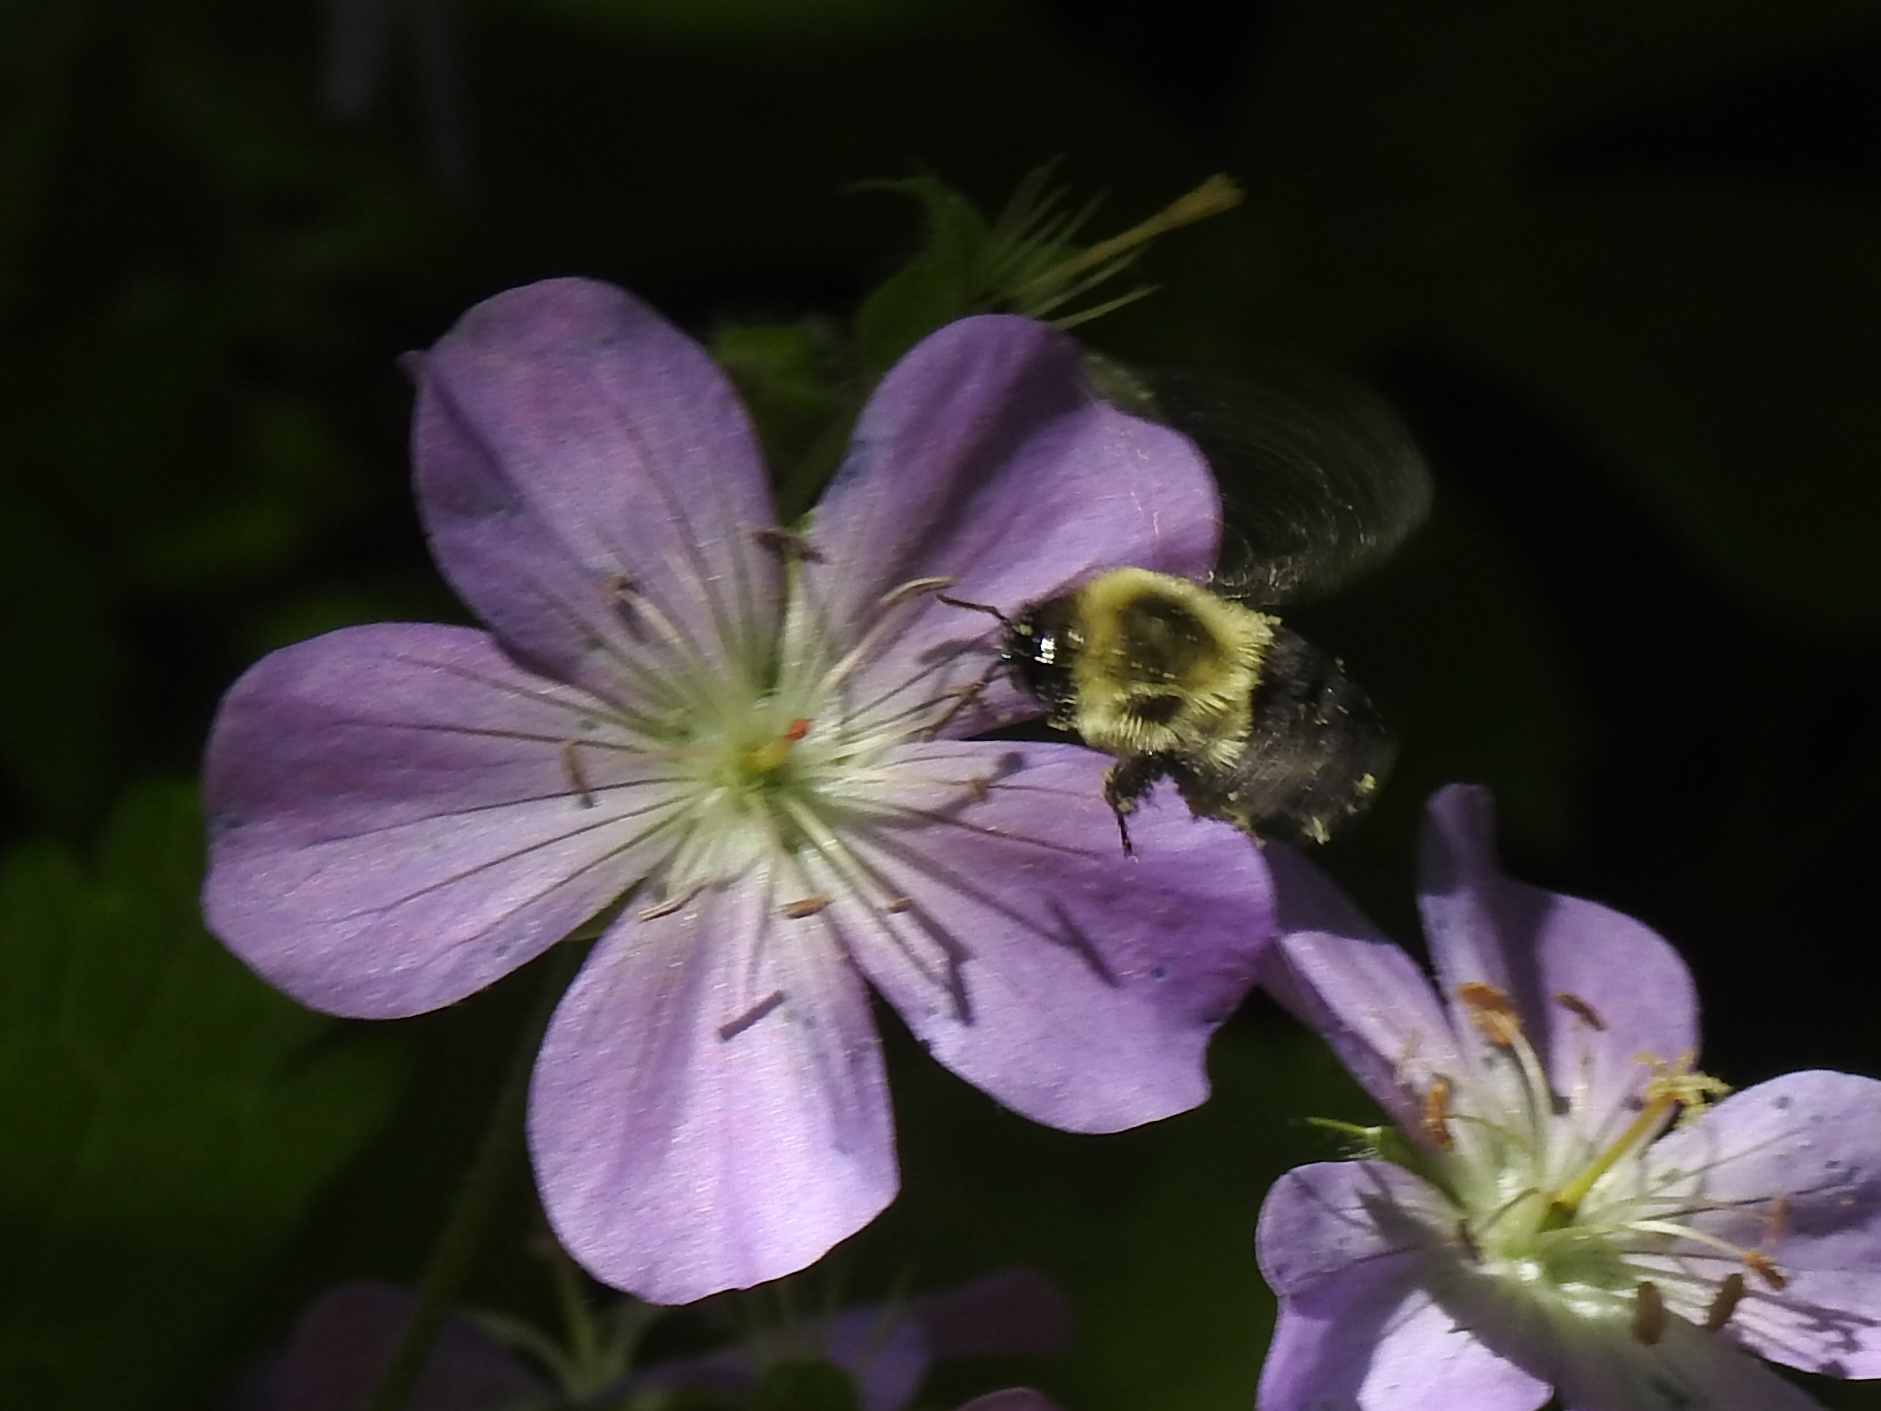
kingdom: Animalia
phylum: Arthropoda
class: Insecta
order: Hymenoptera
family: Apidae
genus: Bombus
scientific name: Bombus impatiens
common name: Common eastern bumble bee
